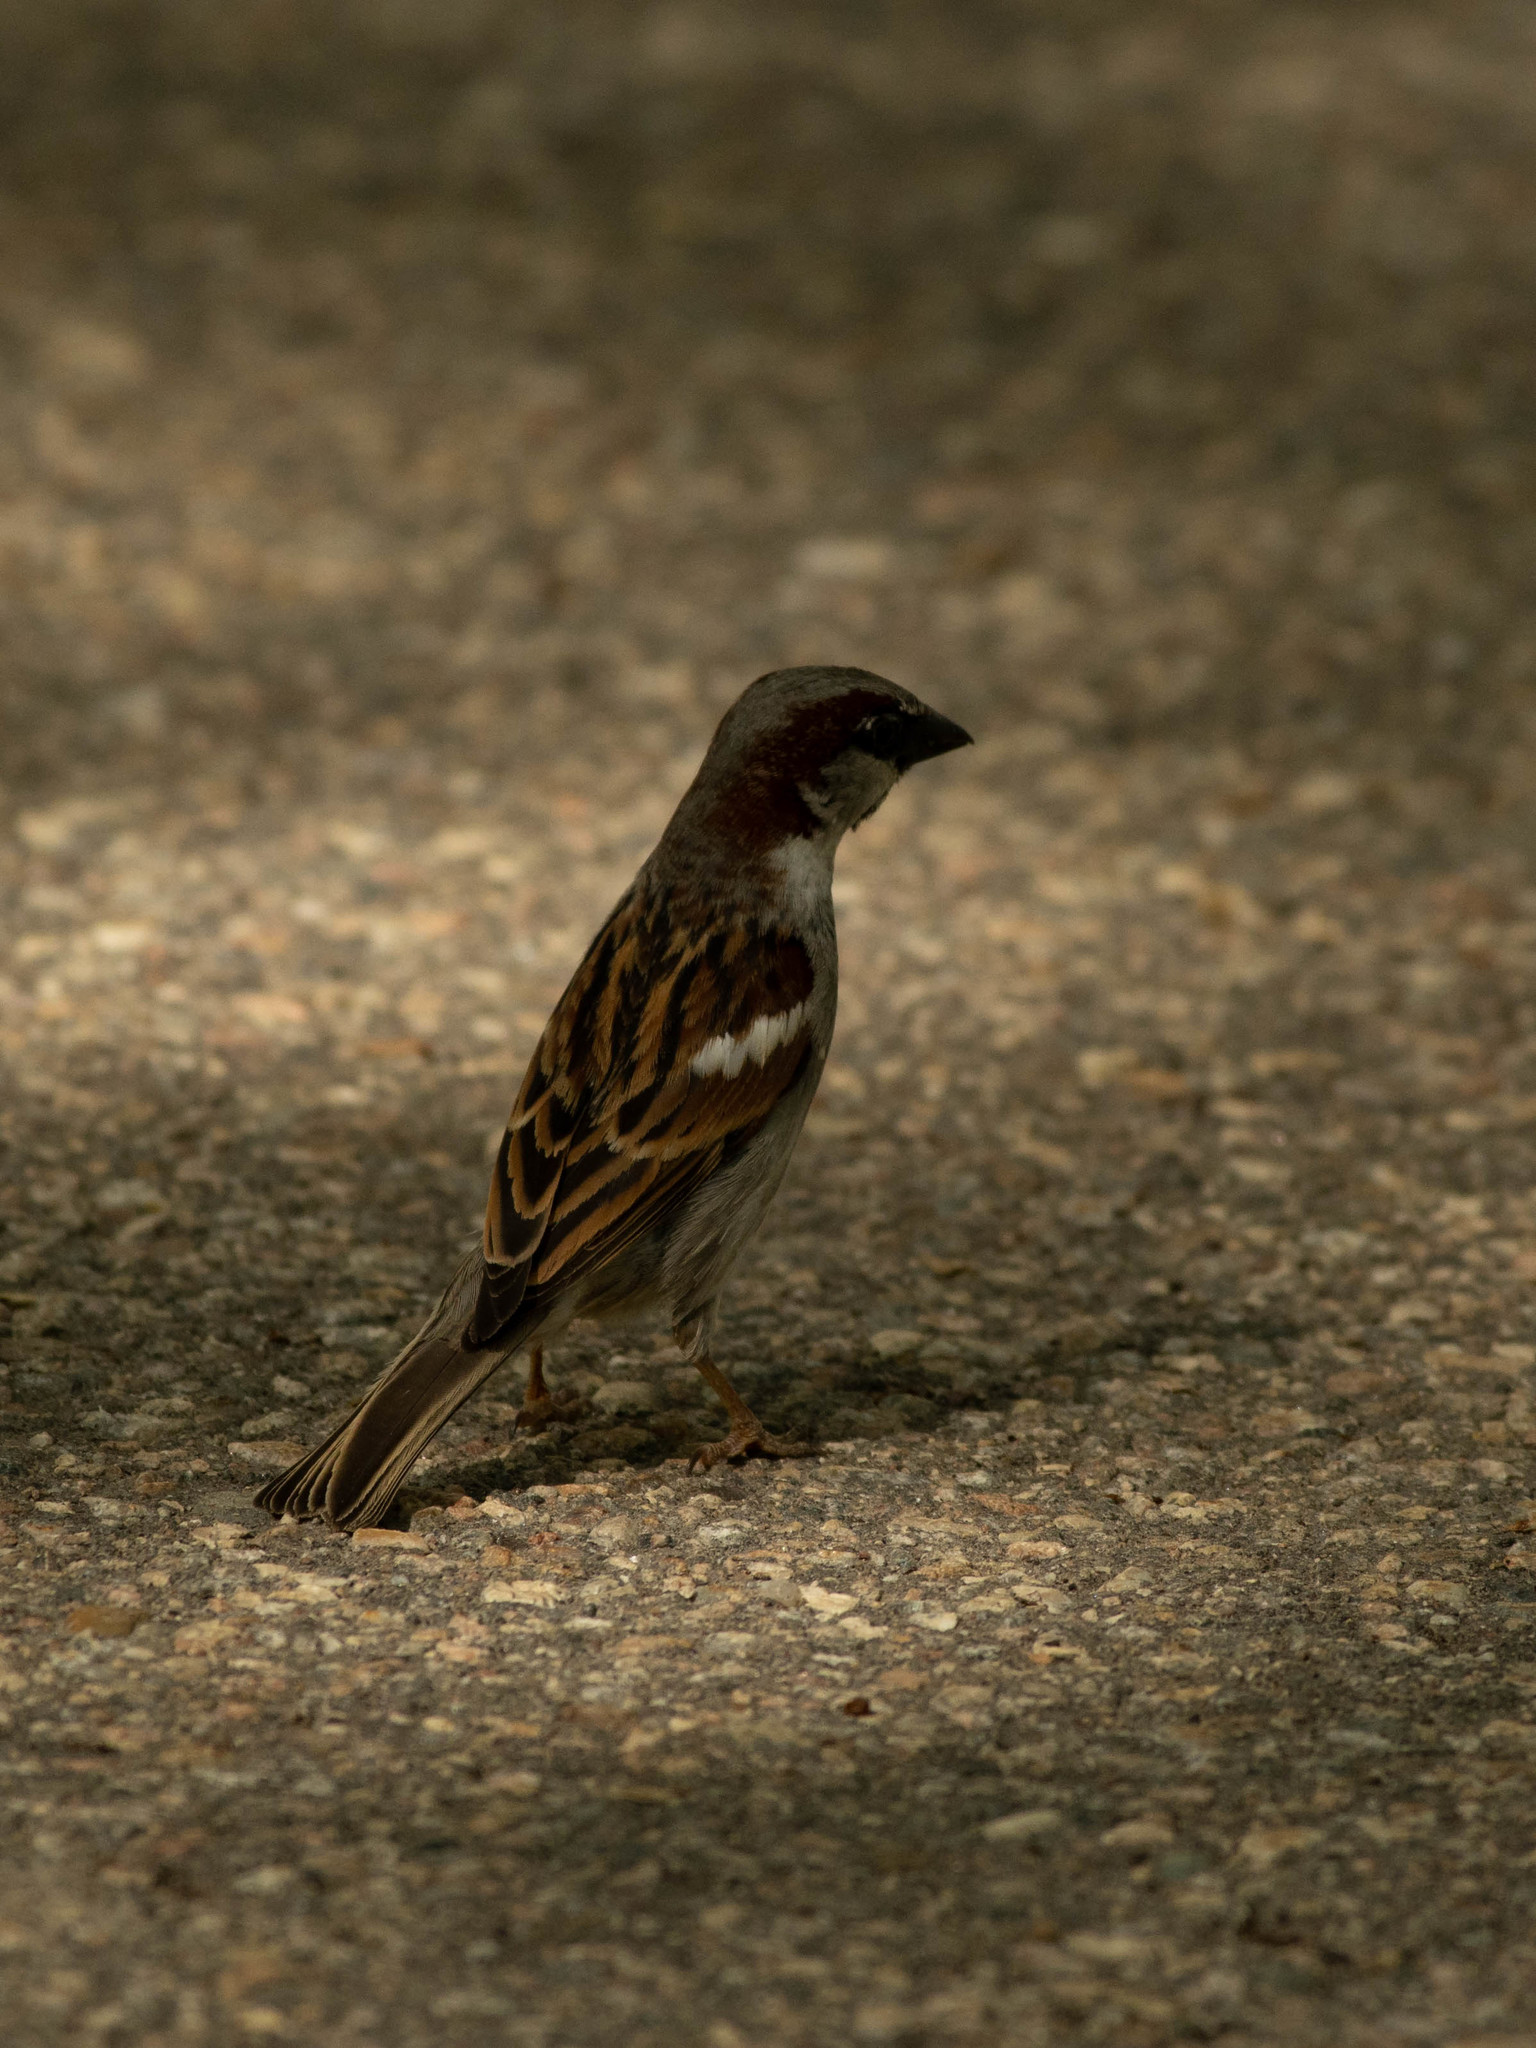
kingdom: Animalia
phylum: Chordata
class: Aves
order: Passeriformes
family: Passeridae
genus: Passer
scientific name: Passer domesticus
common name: House sparrow
